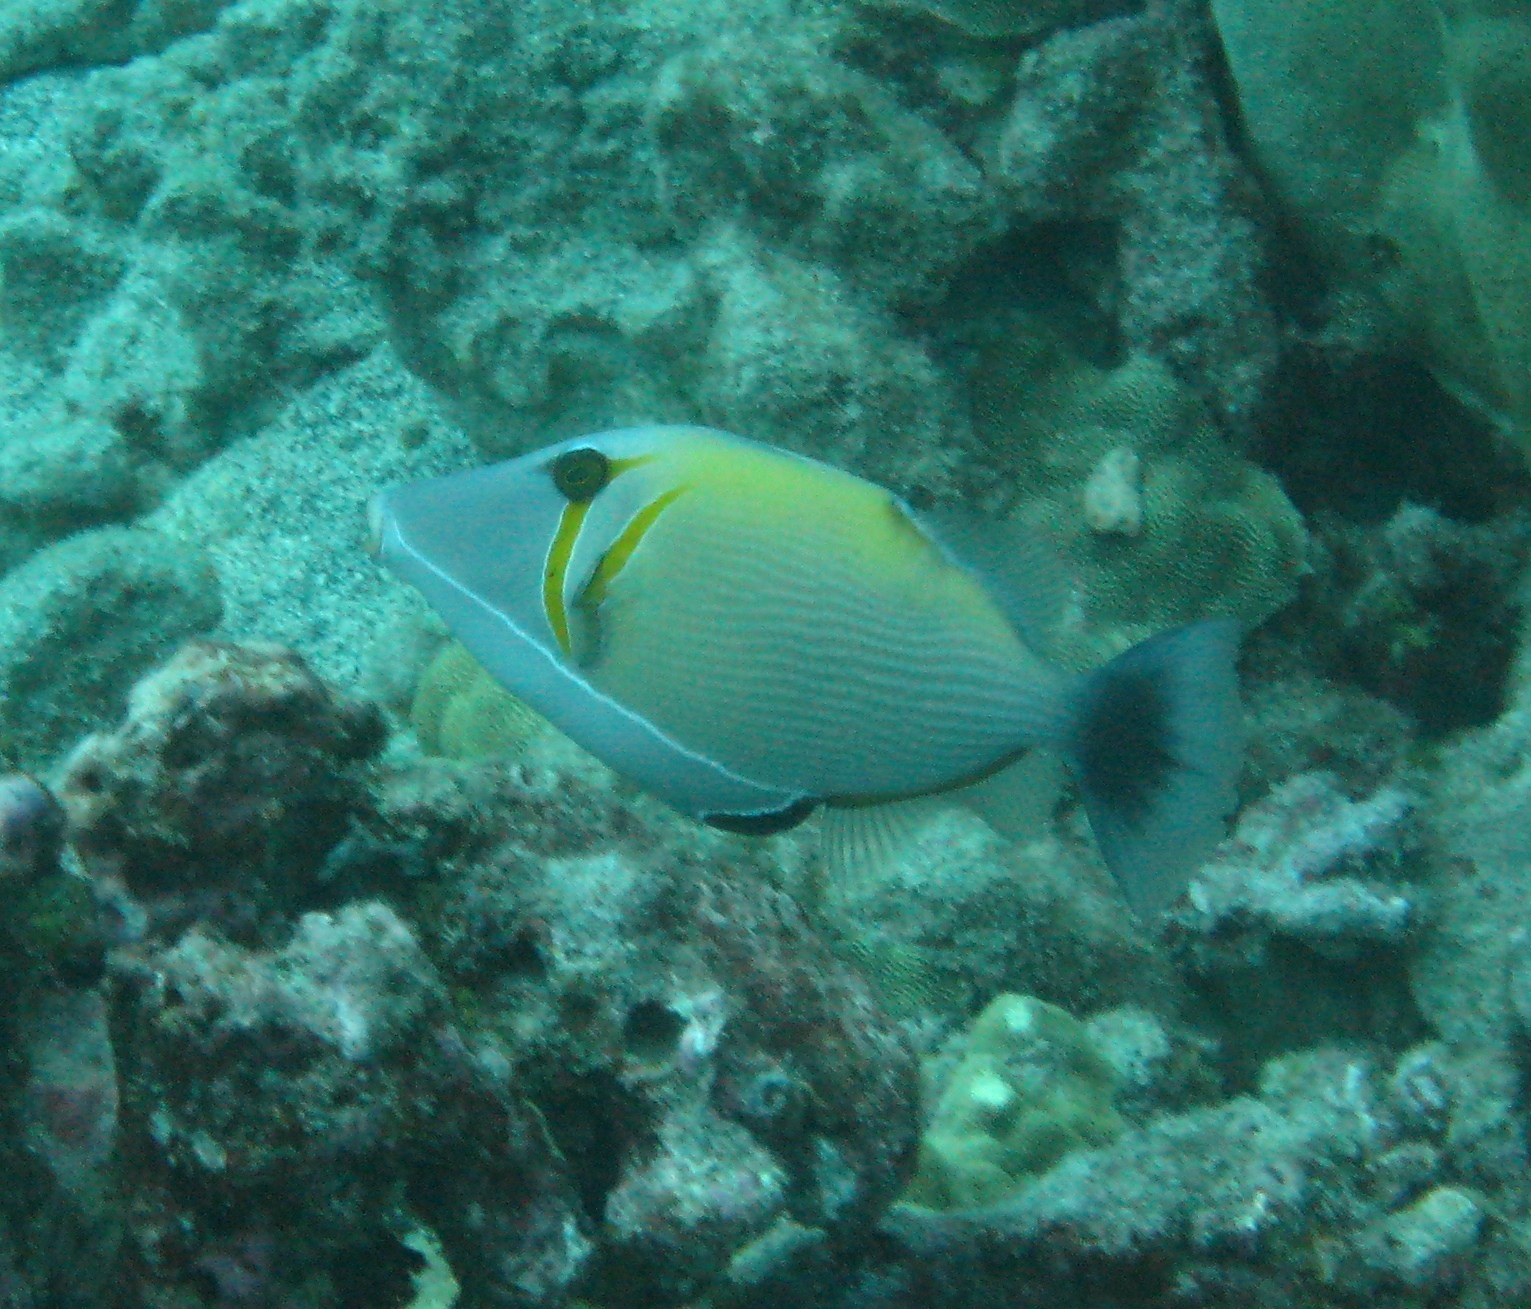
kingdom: Animalia
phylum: Chordata
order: Tetraodontiformes
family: Balistidae
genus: Sufflamen
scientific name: Sufflamen bursa
